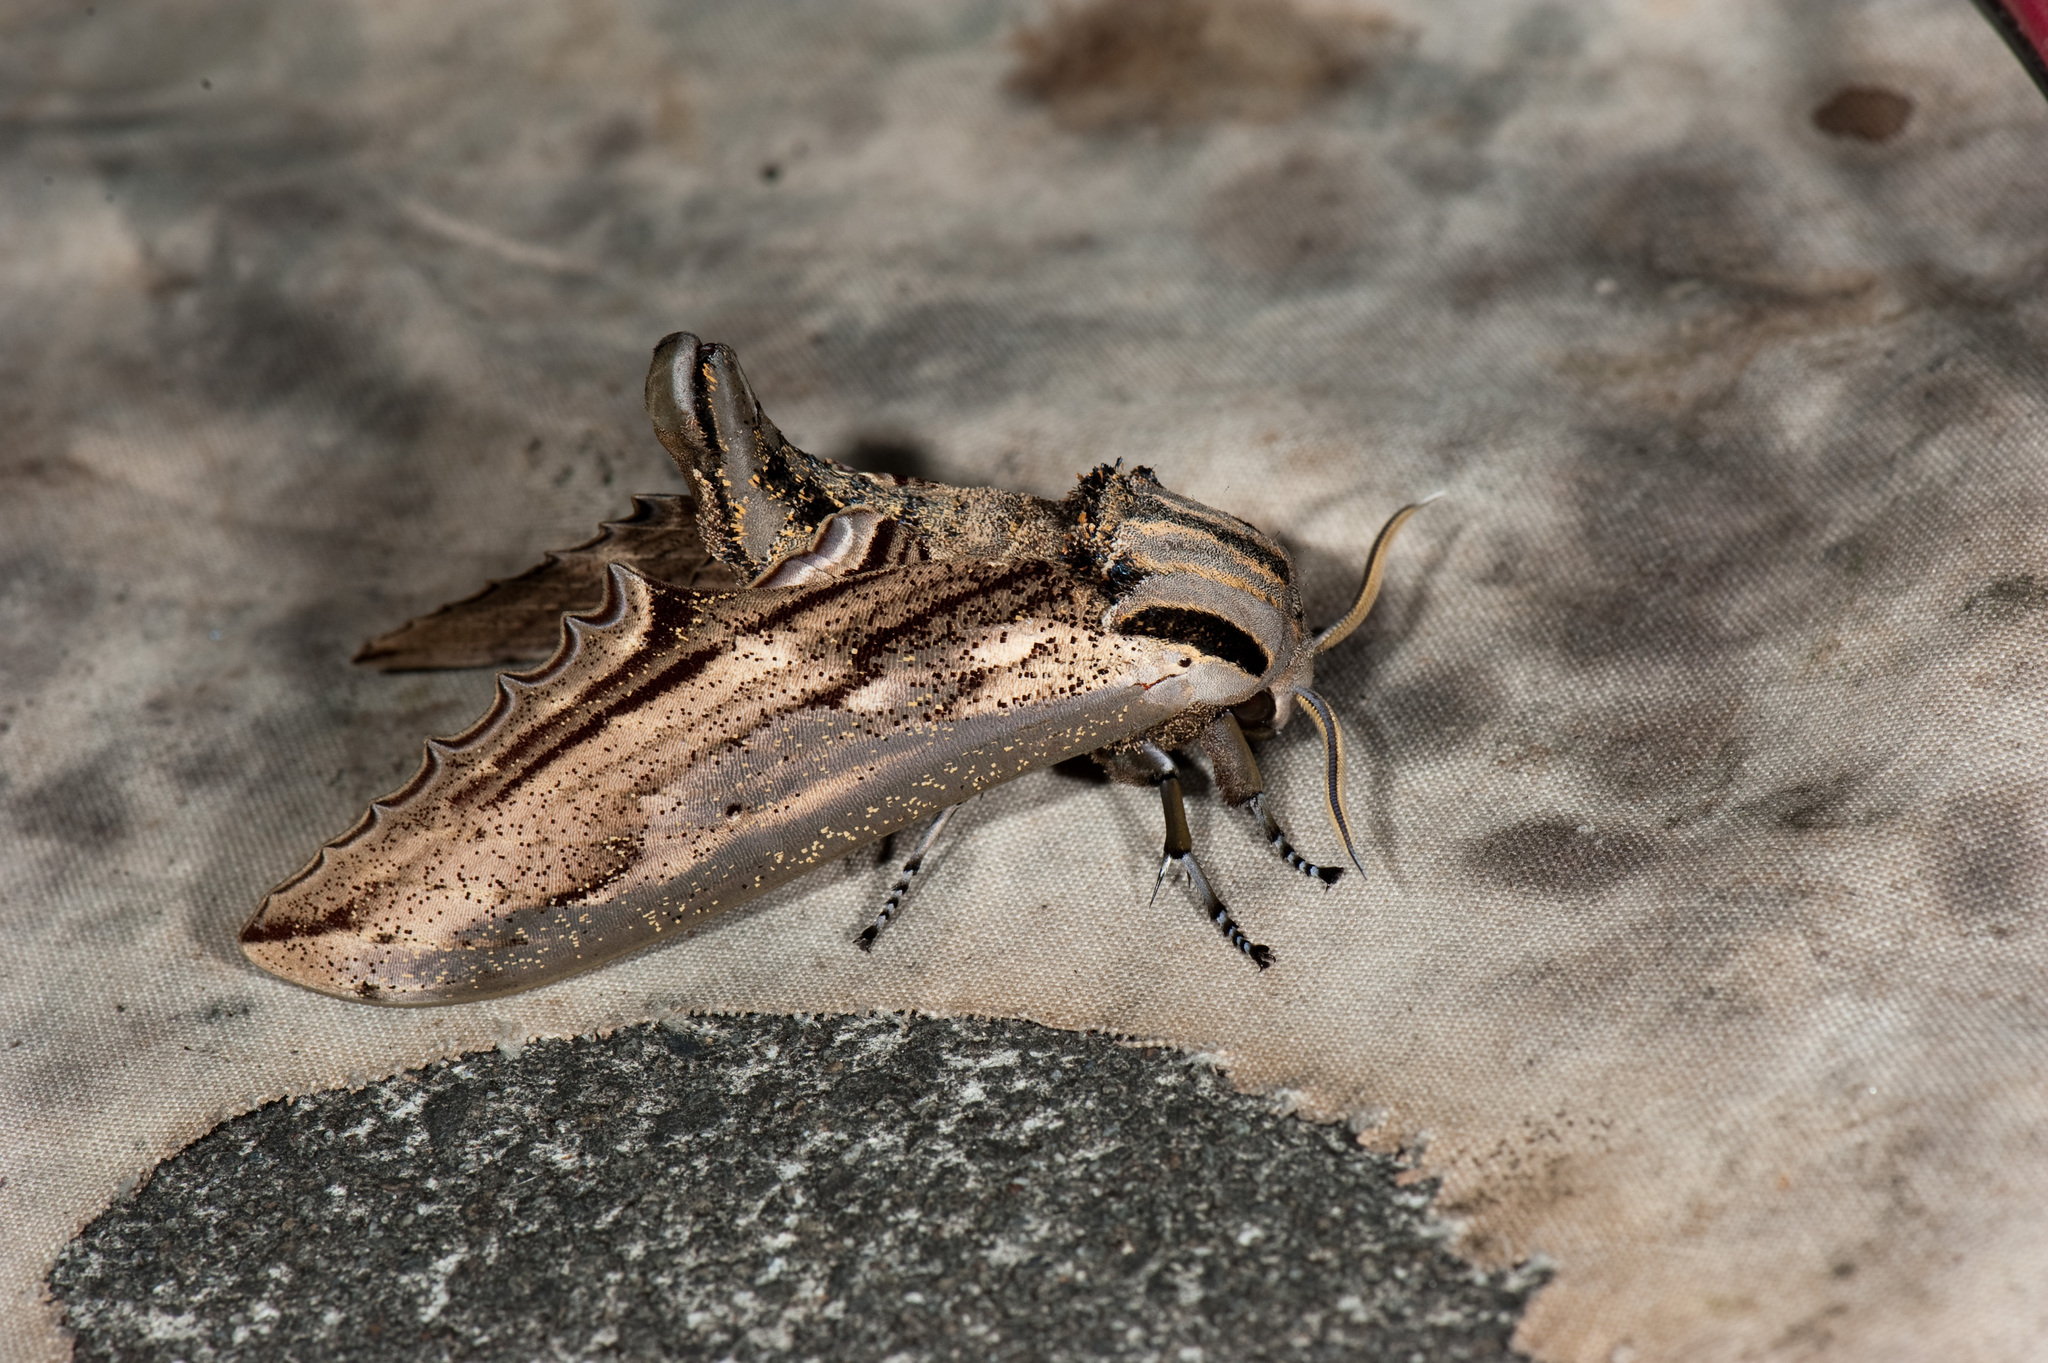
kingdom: Animalia
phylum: Arthropoda
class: Insecta
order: Lepidoptera
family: Sphingidae
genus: Langia
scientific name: Langia zenzeroides
